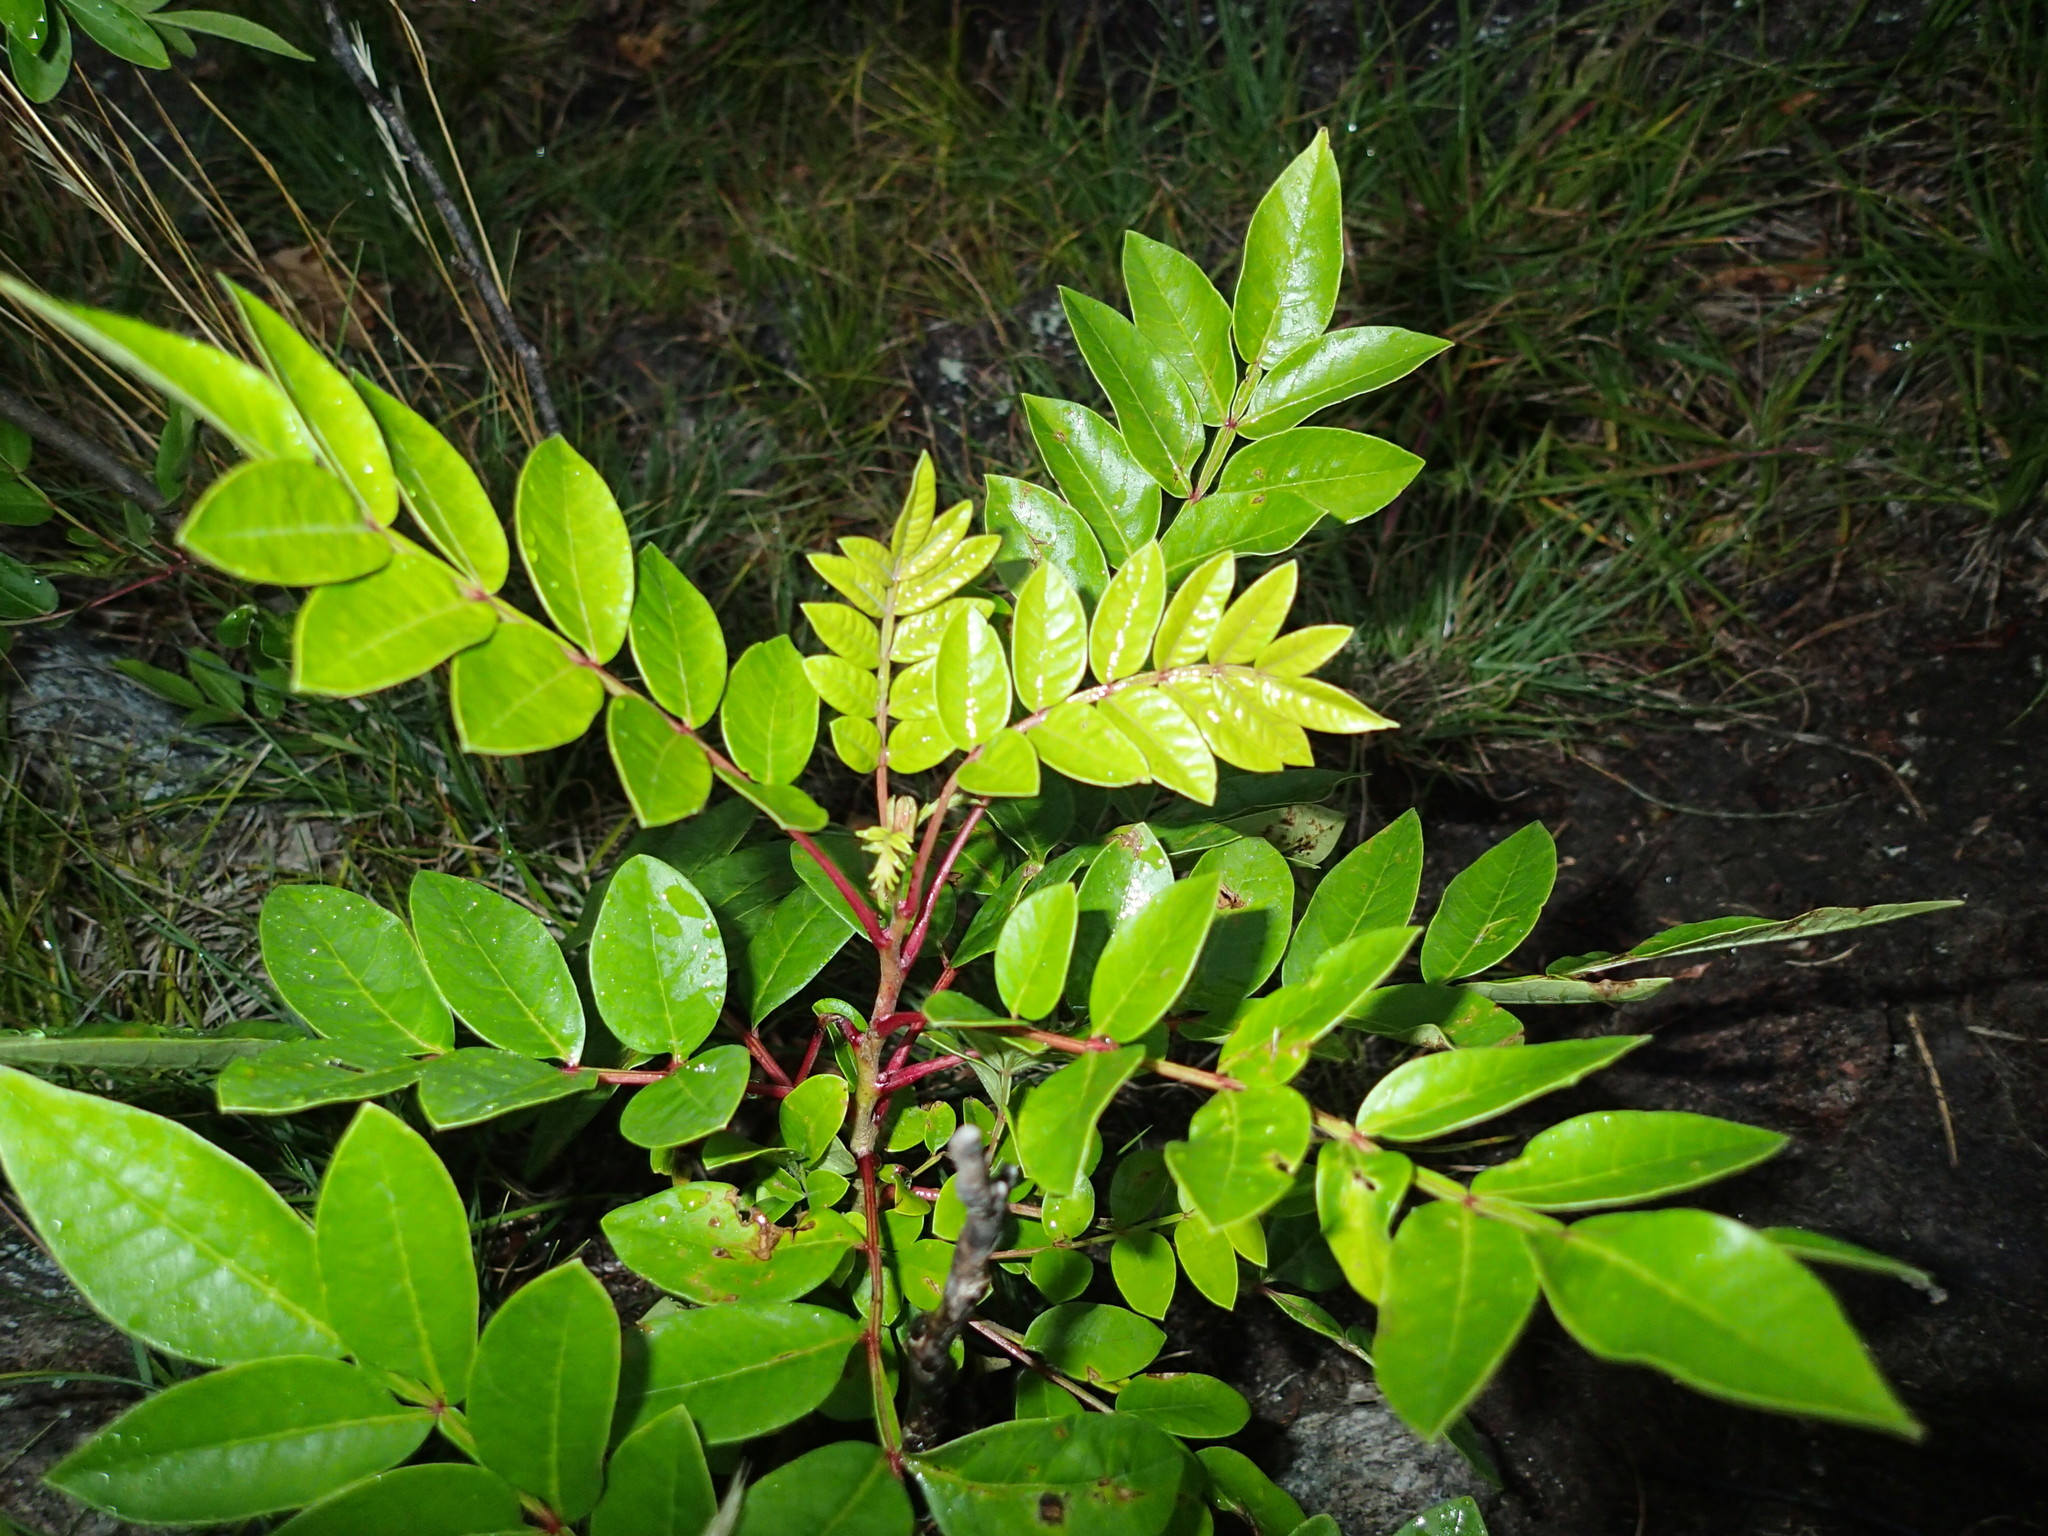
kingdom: Plantae
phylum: Tracheophyta
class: Magnoliopsida
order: Sapindales
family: Anacardiaceae
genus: Rhus
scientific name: Rhus copallina
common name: Shining sumac
